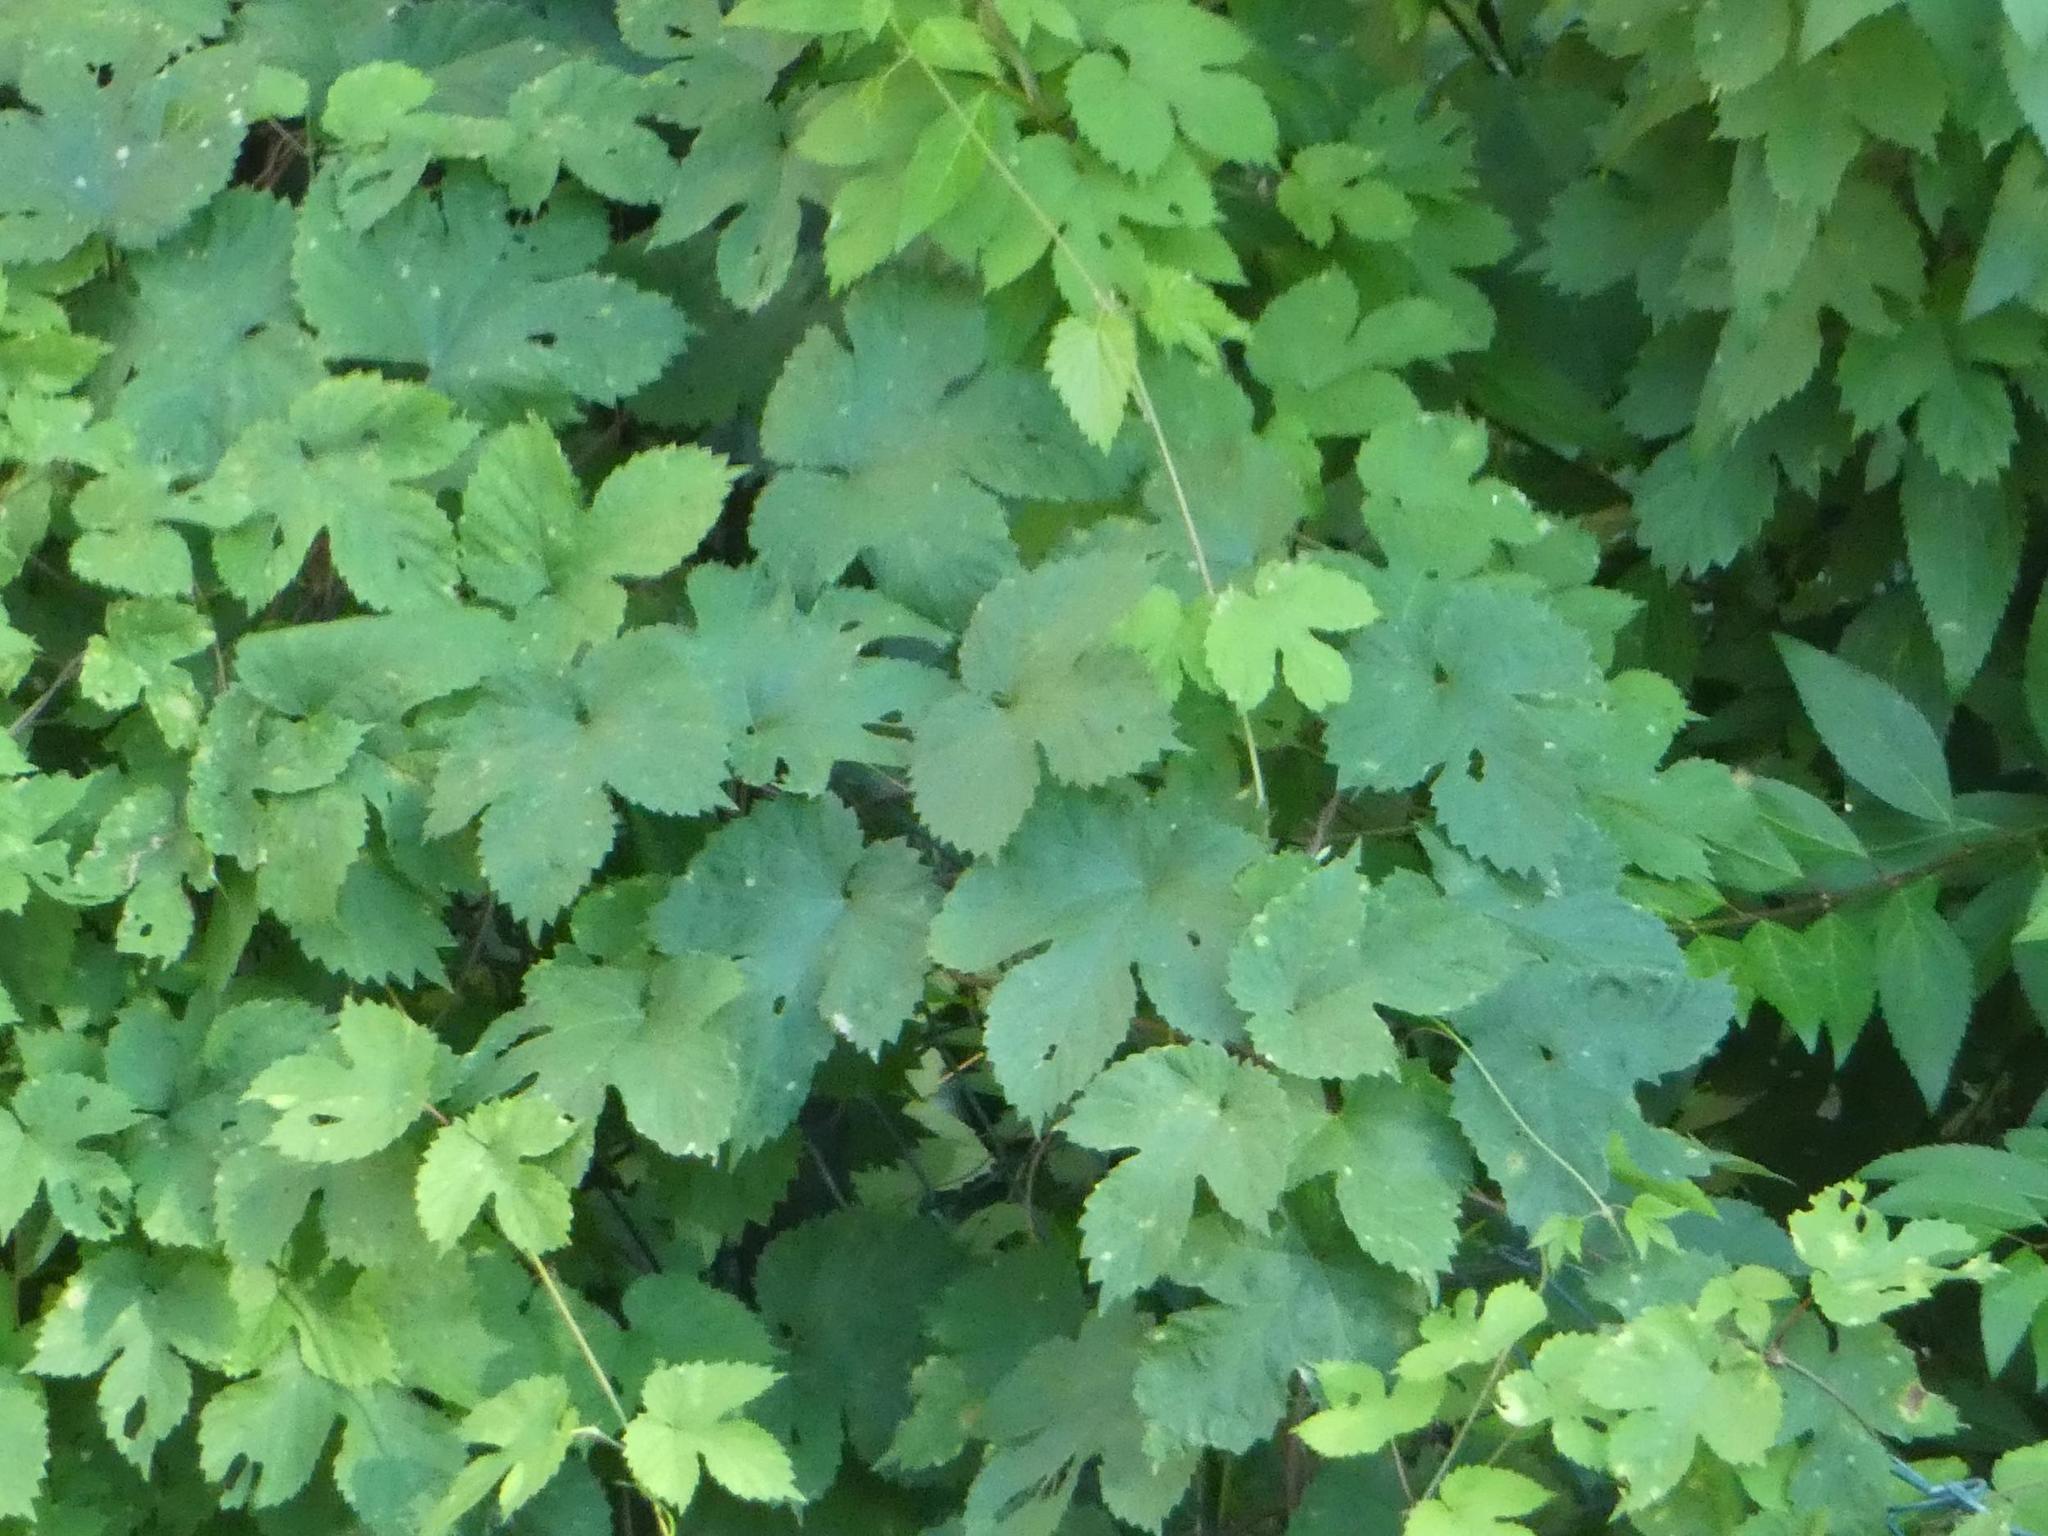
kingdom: Plantae
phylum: Tracheophyta
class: Magnoliopsida
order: Rosales
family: Cannabaceae
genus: Humulus
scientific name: Humulus lupulus
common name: Hop
